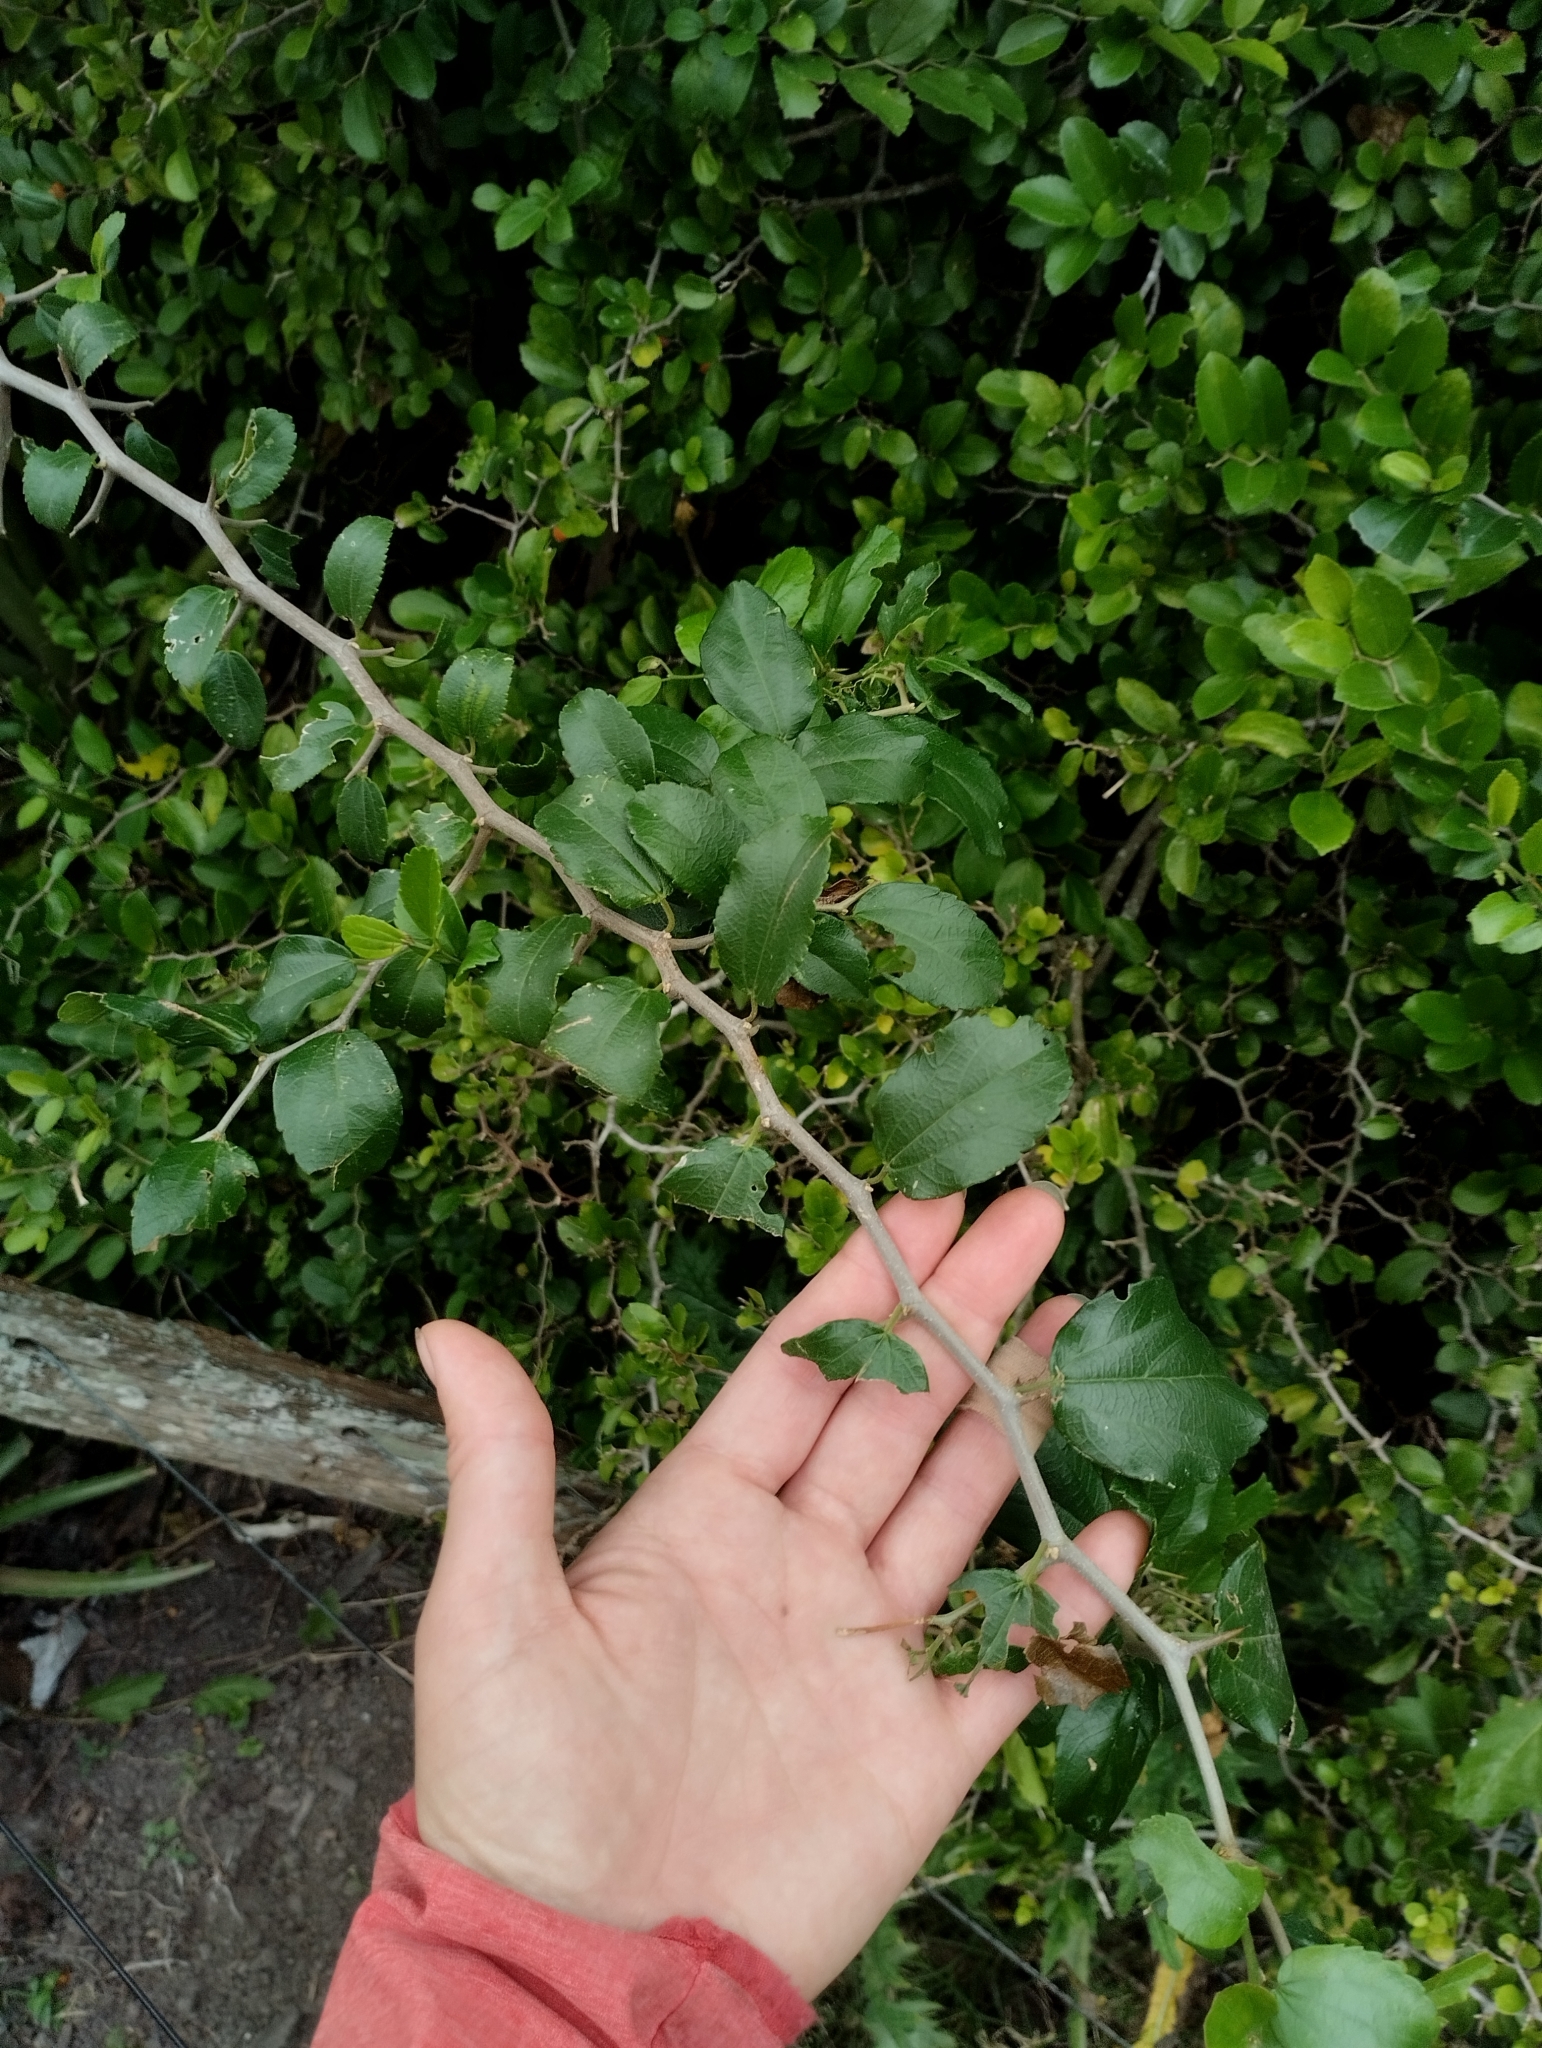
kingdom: Plantae
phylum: Tracheophyta
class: Magnoliopsida
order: Rosales
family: Cannabaceae
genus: Celtis
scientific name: Celtis spinosa
